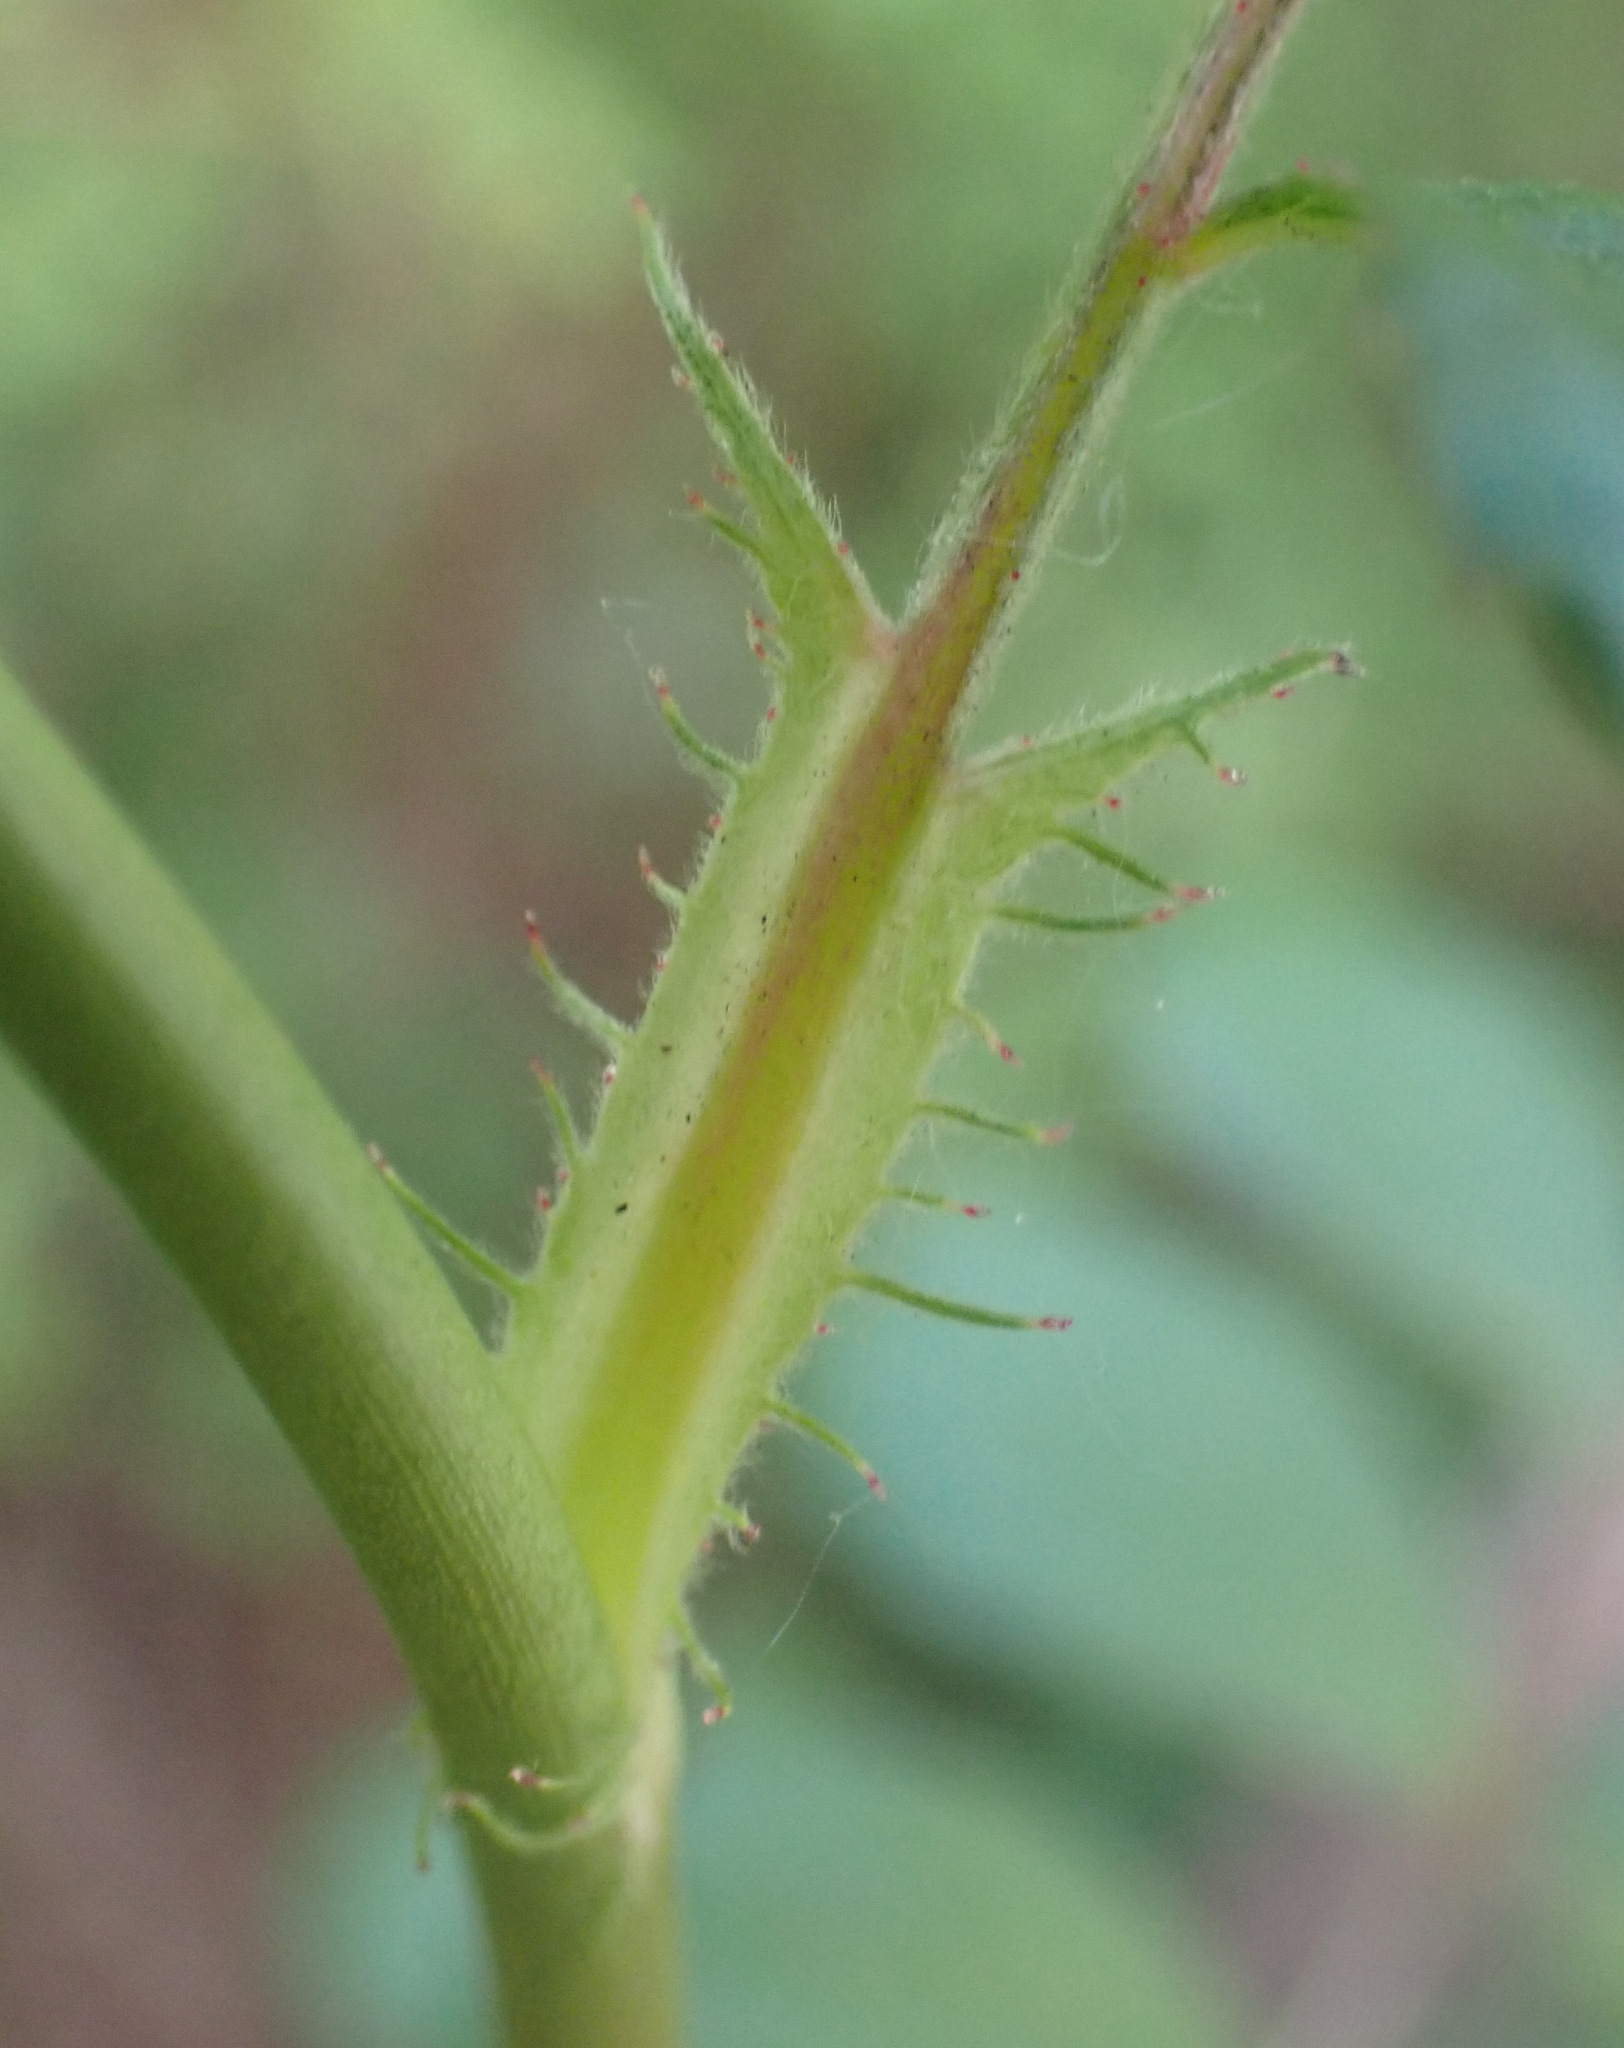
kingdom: Plantae
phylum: Tracheophyta
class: Magnoliopsida
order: Rosales
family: Rosaceae
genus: Rosa
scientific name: Rosa multiflora
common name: Multiflora rose
